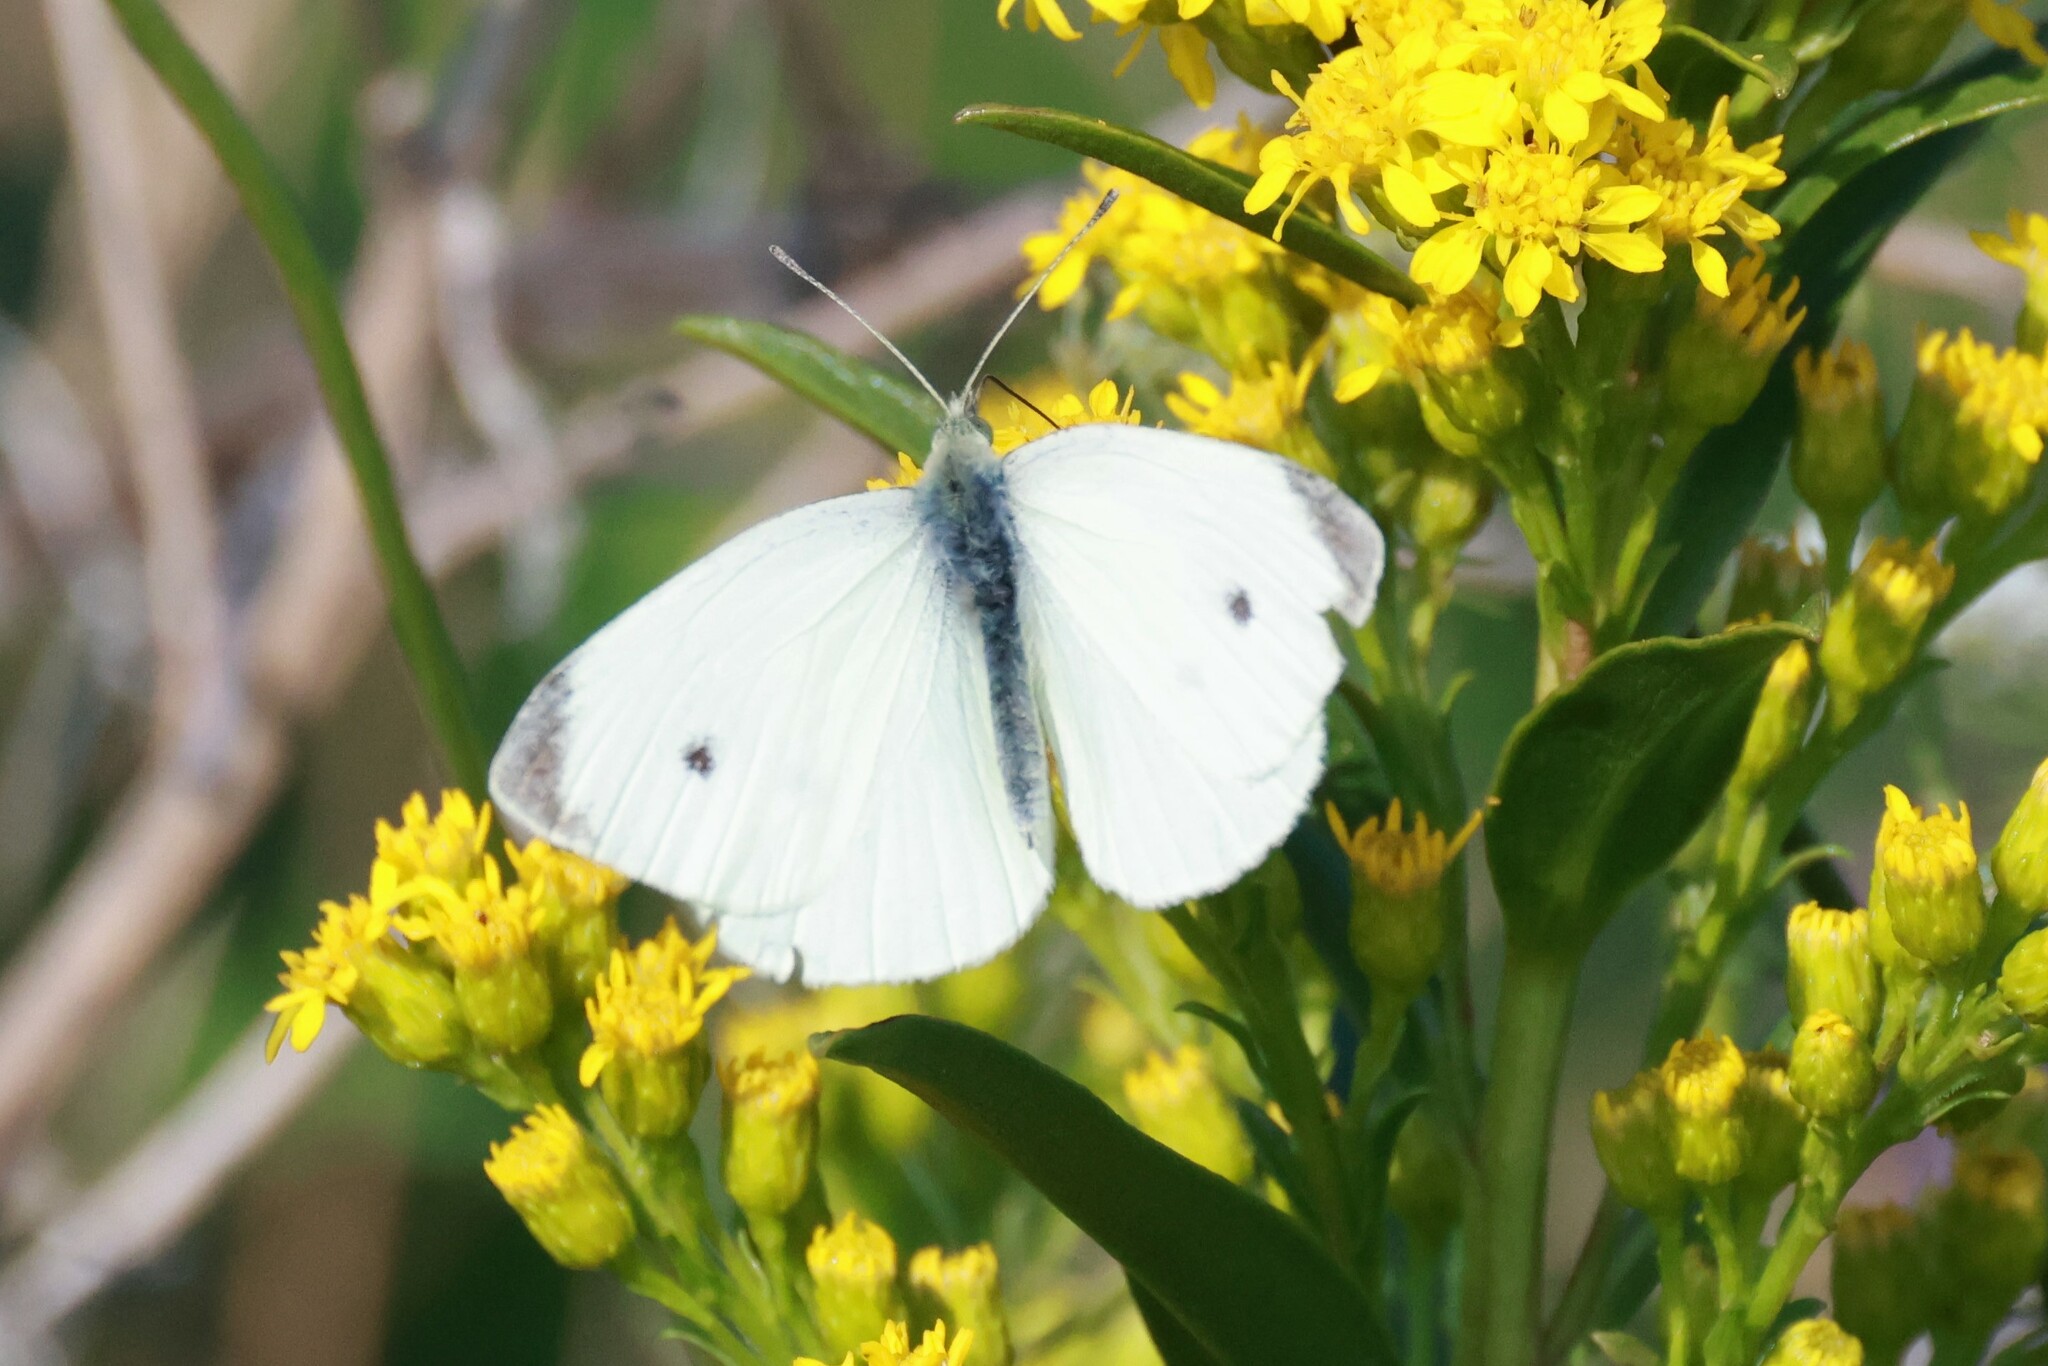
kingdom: Animalia
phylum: Arthropoda
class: Insecta
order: Lepidoptera
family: Pieridae
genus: Pieris
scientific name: Pieris rapae
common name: Small white
